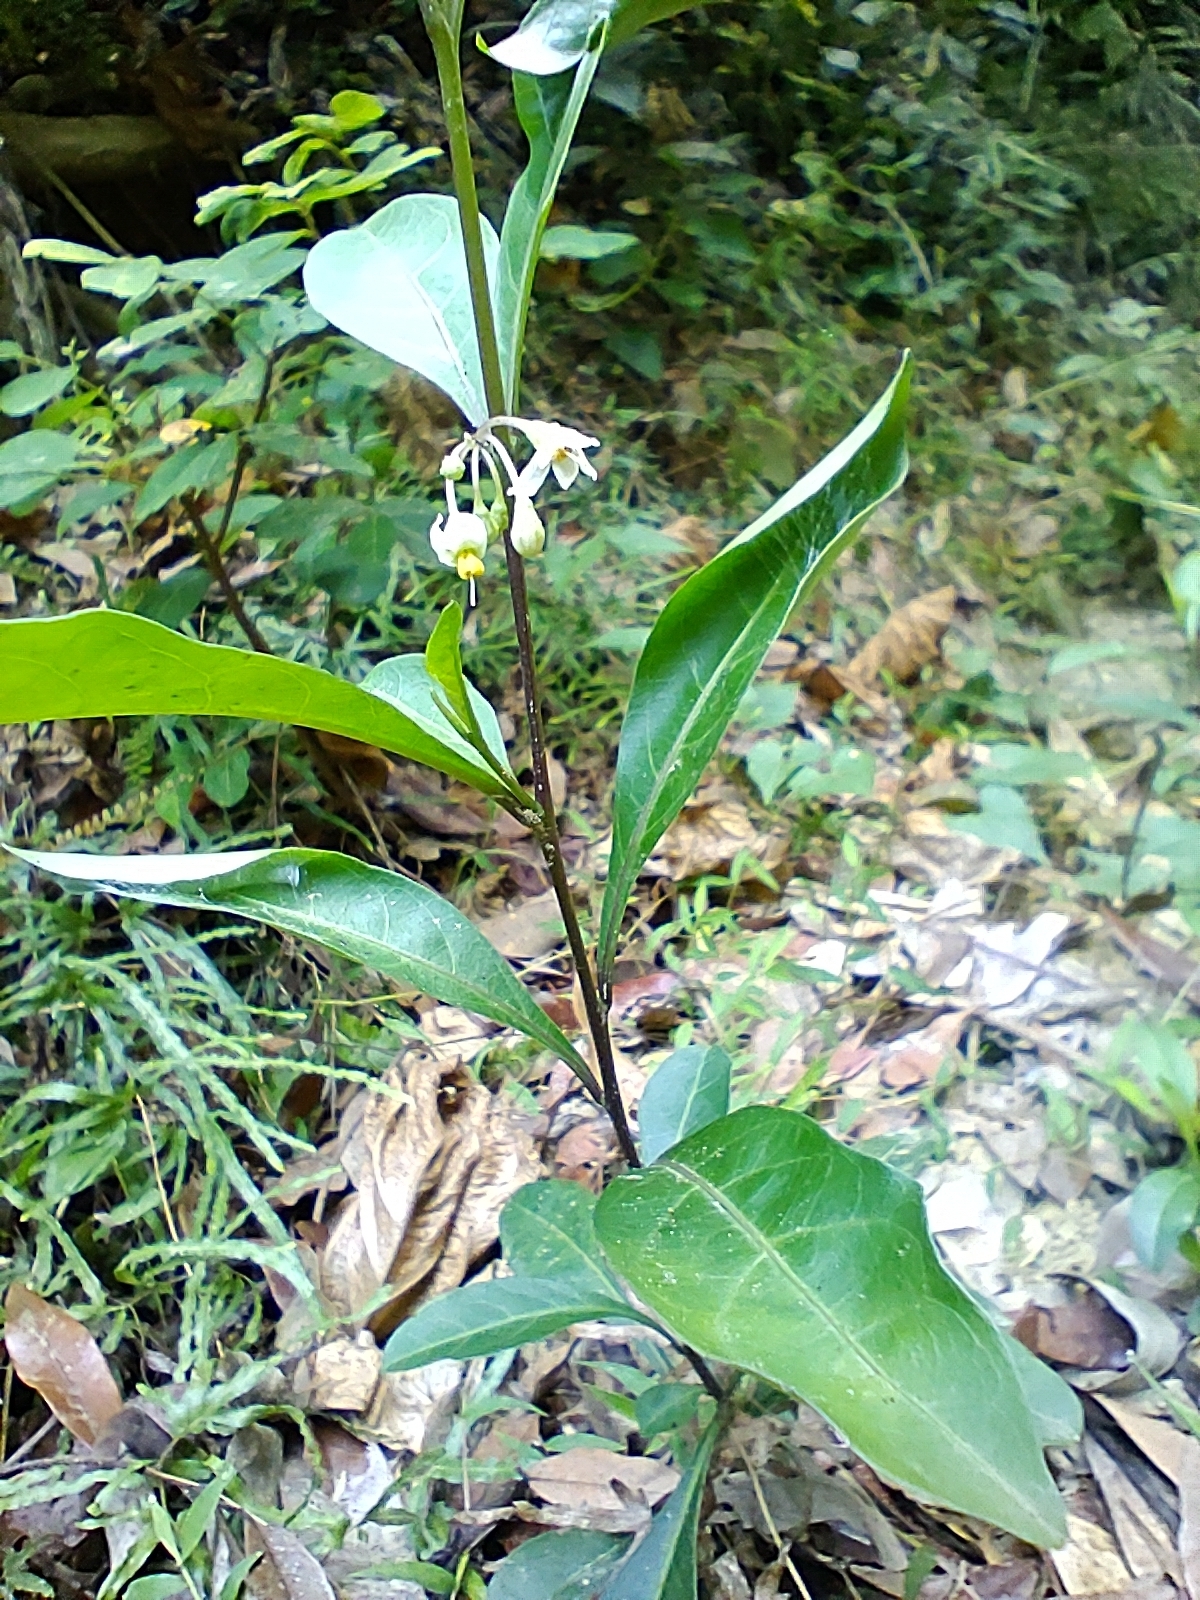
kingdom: Plantae
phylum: Tracheophyta
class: Magnoliopsida
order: Solanales
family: Solanaceae
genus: Solanum
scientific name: Solanum diphyllum
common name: Twoleaf nightshade
